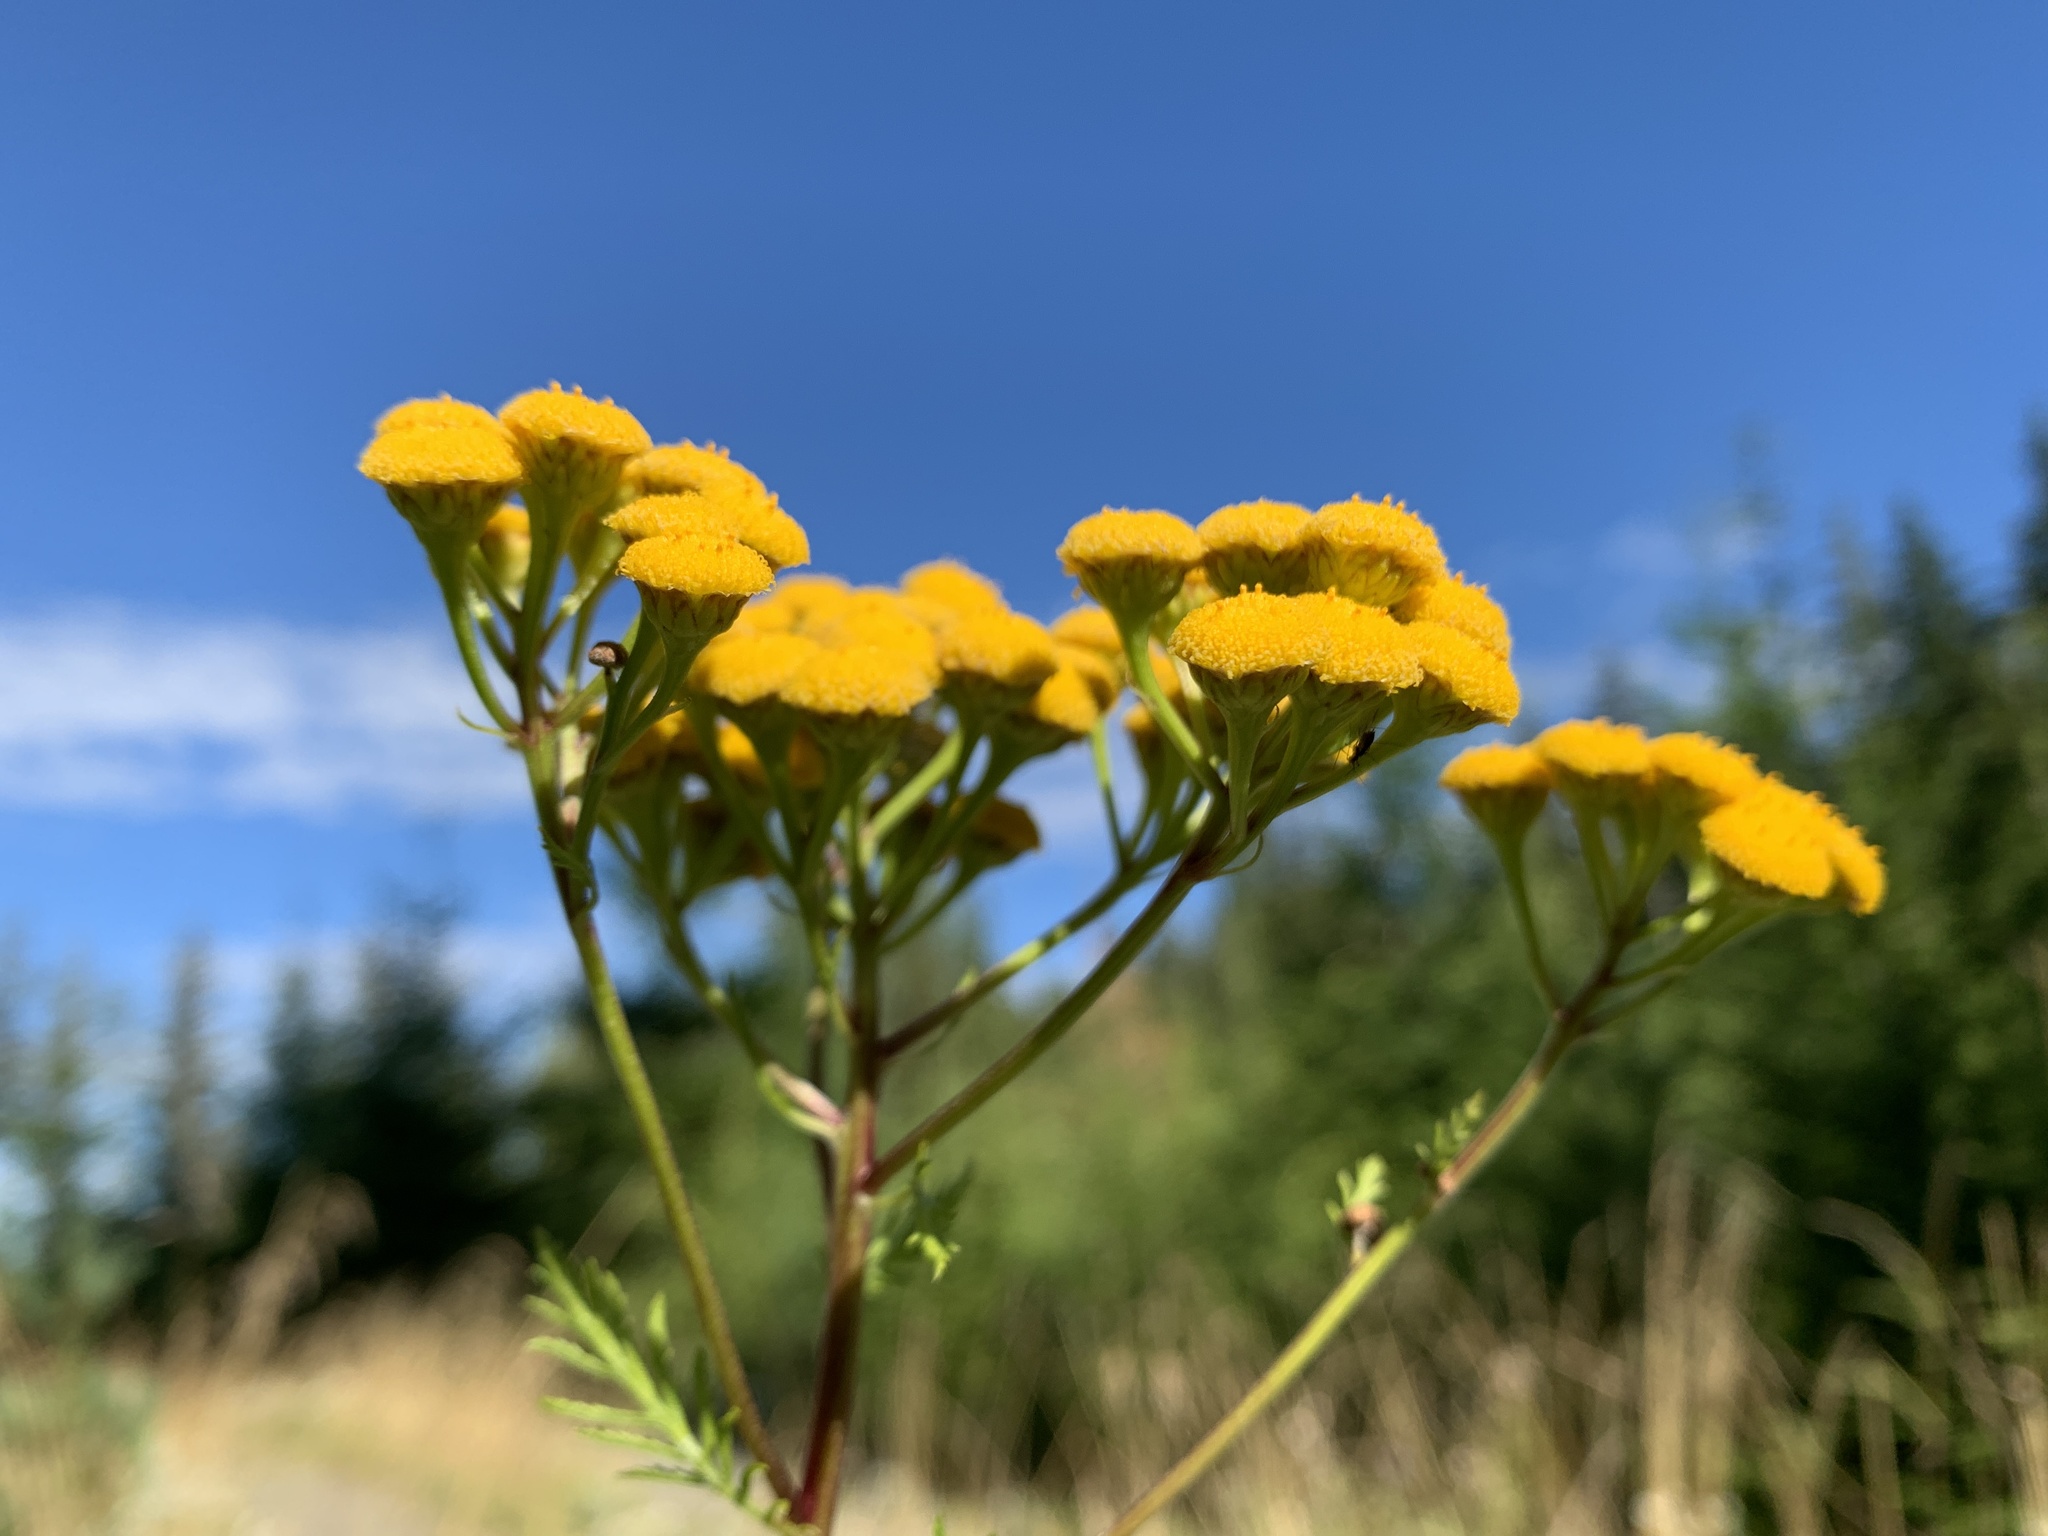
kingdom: Plantae
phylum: Tracheophyta
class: Magnoliopsida
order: Asterales
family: Asteraceae
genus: Tanacetum
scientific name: Tanacetum vulgare
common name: Common tansy
